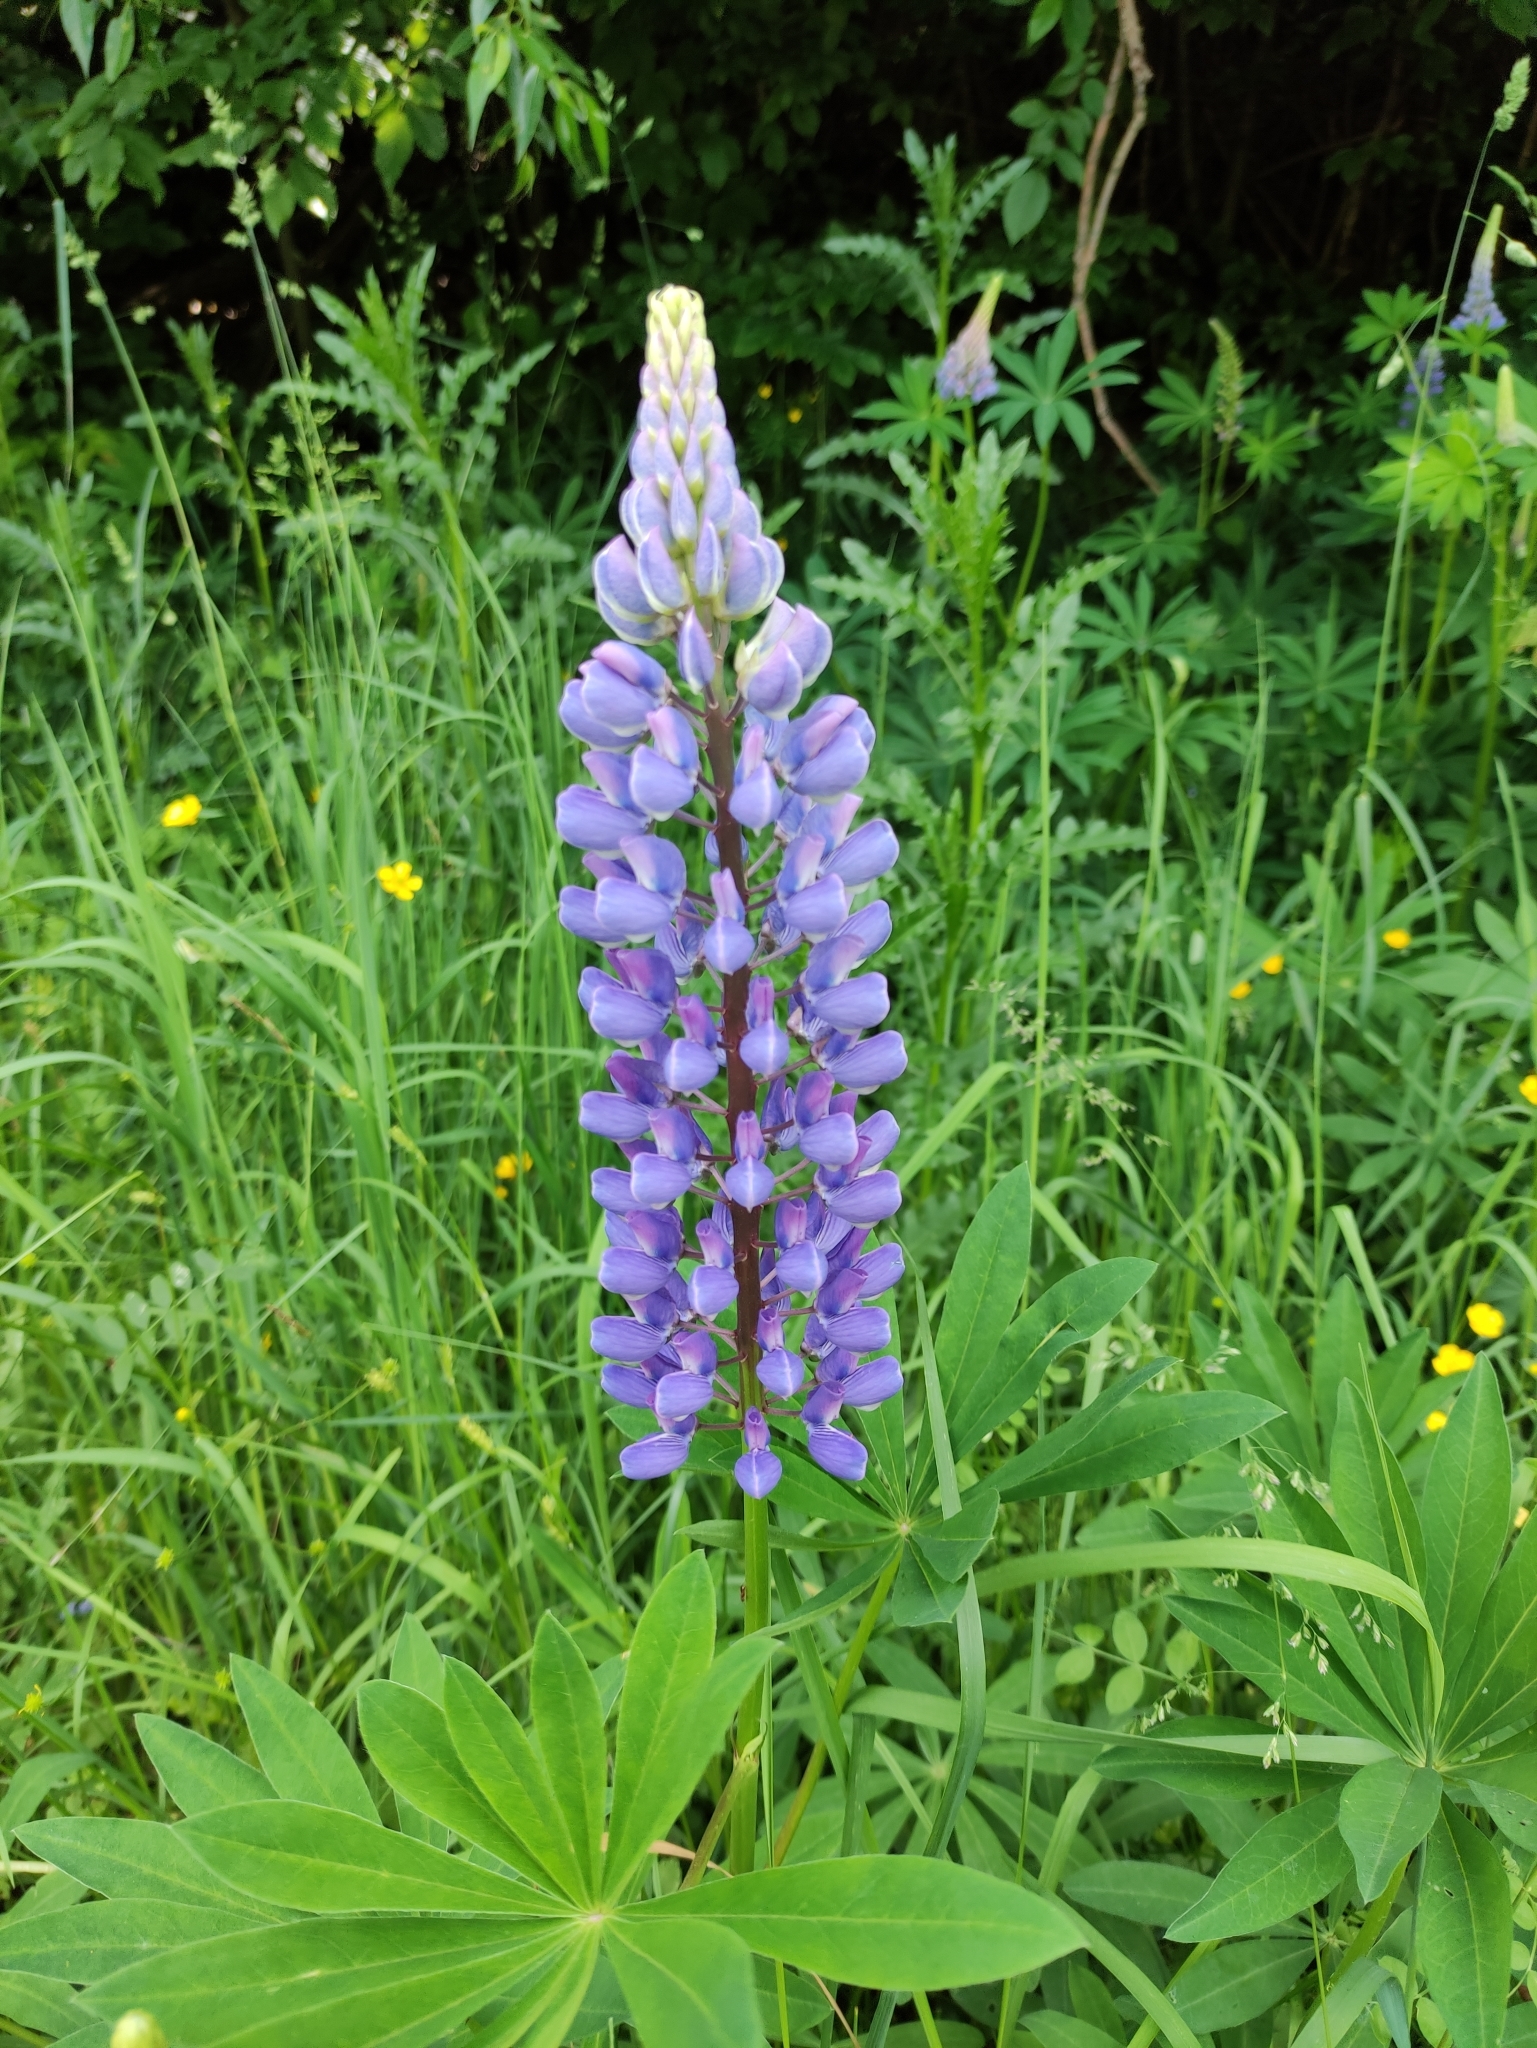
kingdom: Plantae
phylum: Tracheophyta
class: Magnoliopsida
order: Fabales
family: Fabaceae
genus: Lupinus
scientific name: Lupinus polyphyllus
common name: Garden lupin
